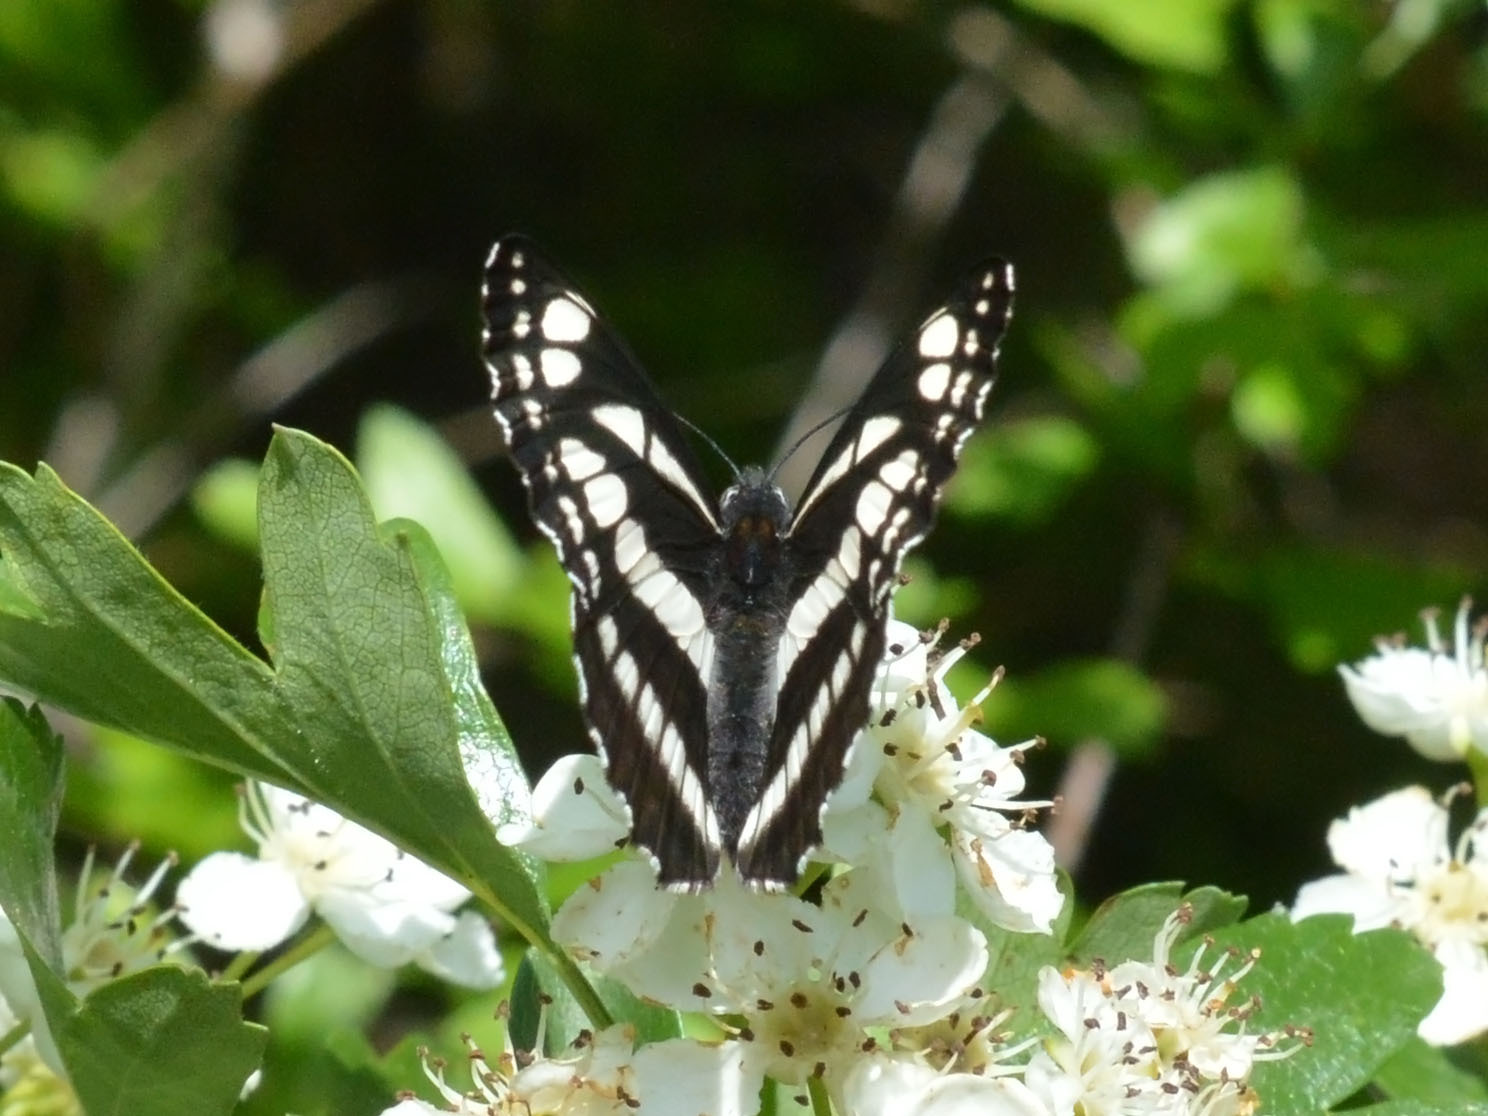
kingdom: Animalia
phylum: Arthropoda
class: Insecta
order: Lepidoptera
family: Nymphalidae
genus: Neptis
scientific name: Neptis sappho
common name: Common glider
